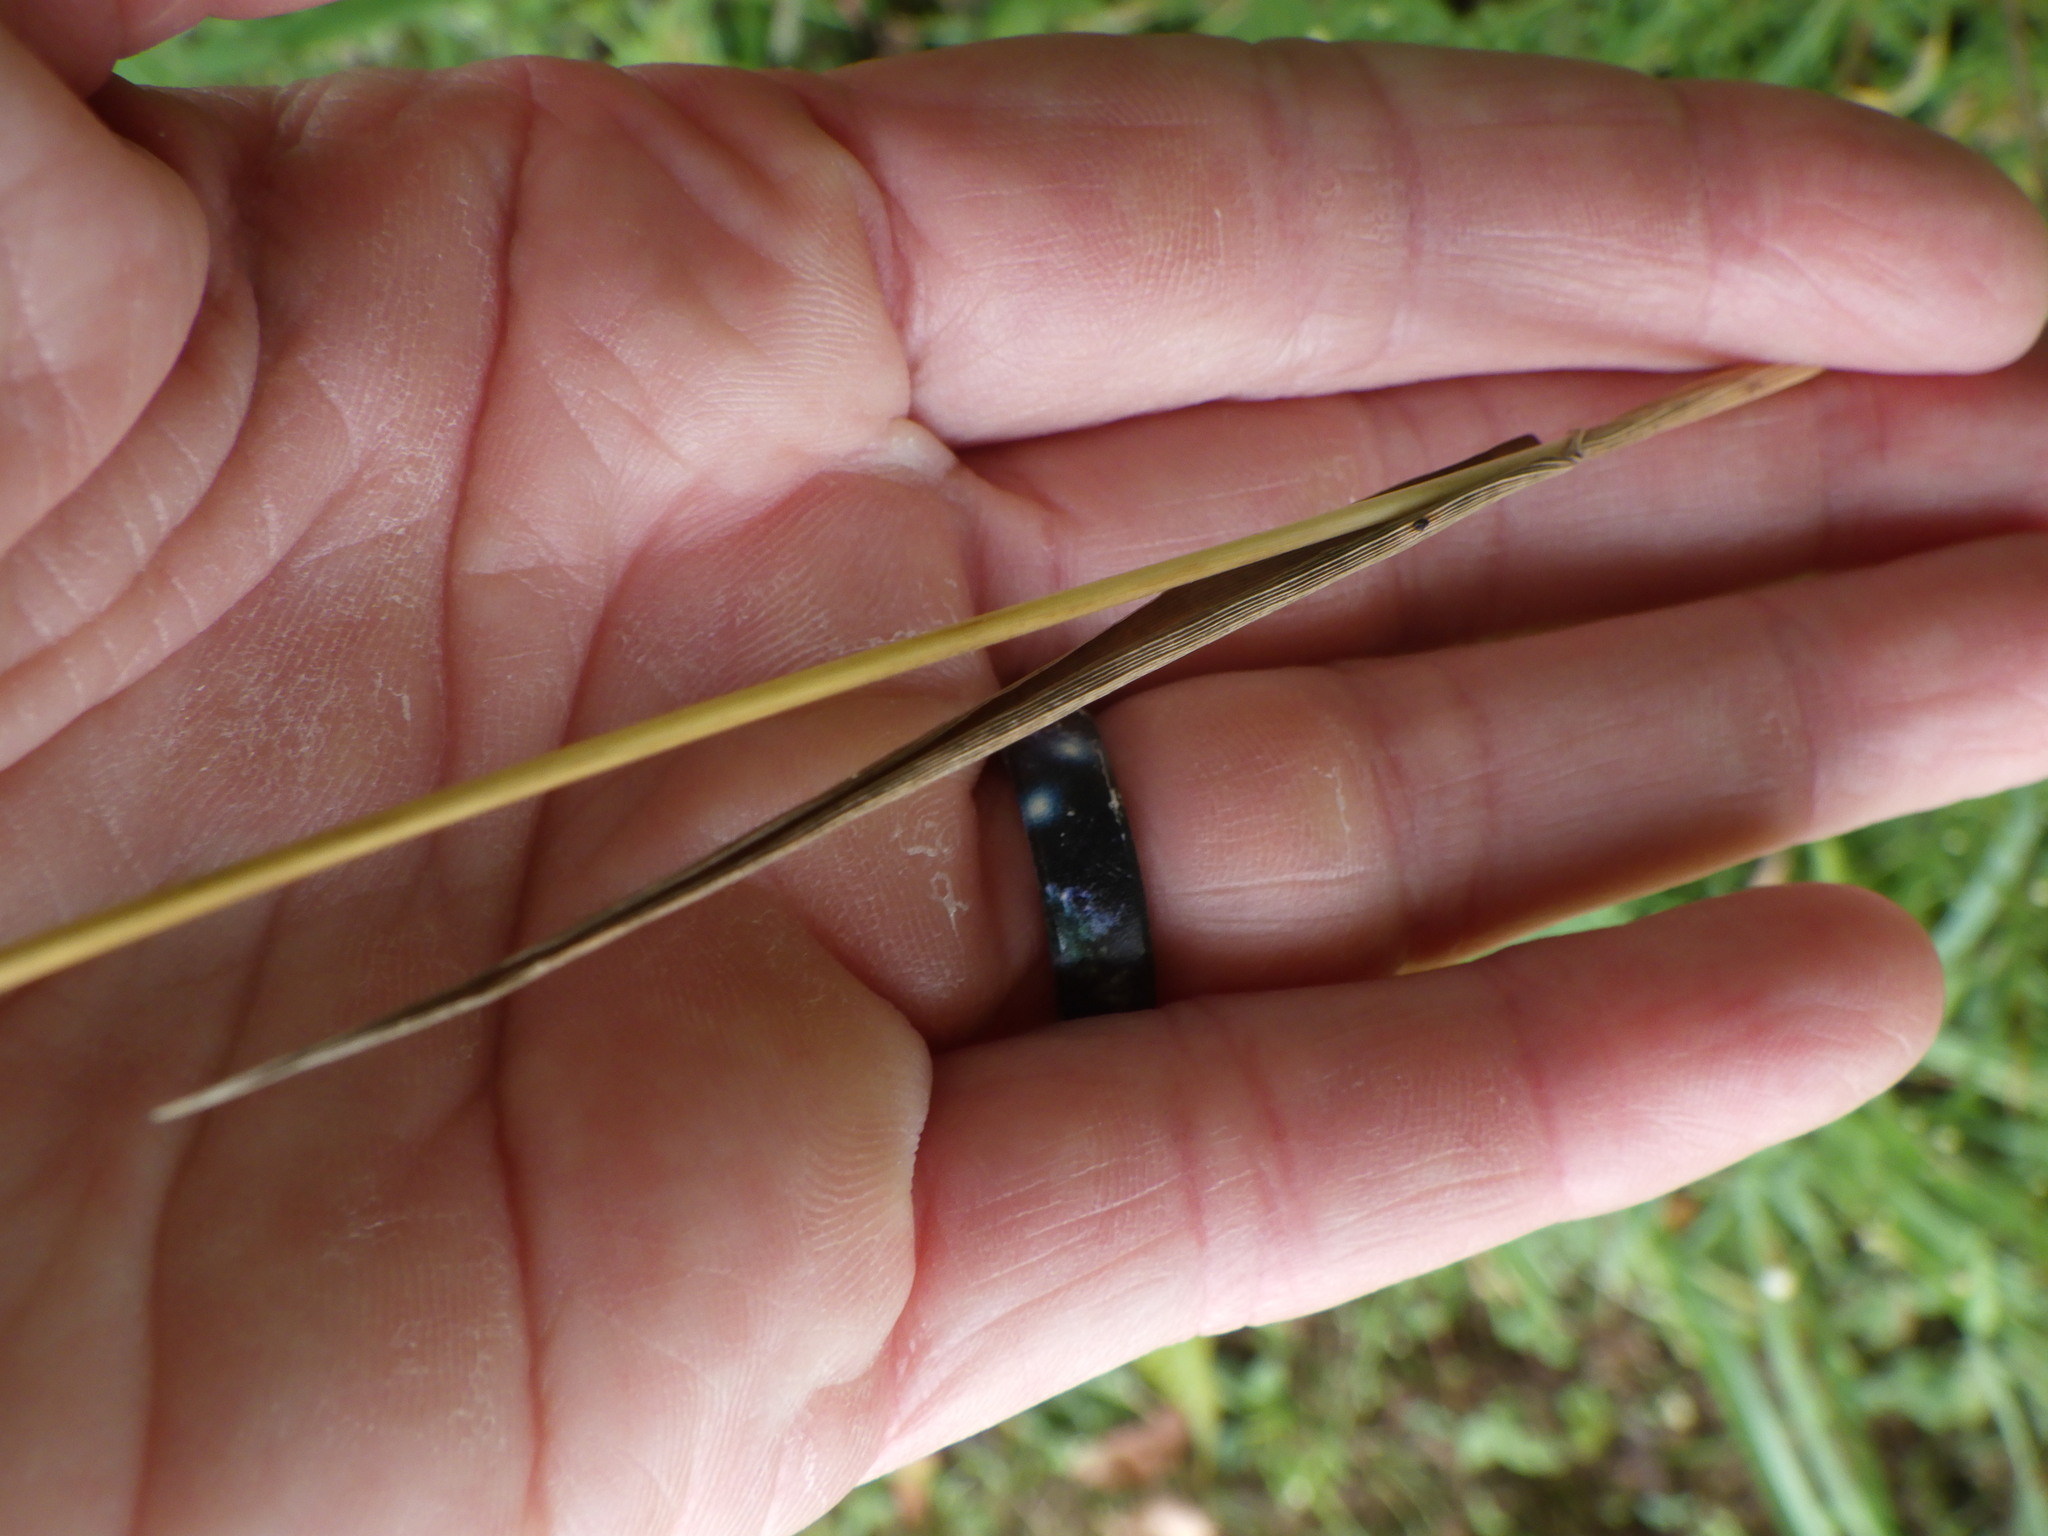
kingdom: Plantae
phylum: Tracheophyta
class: Liliopsida
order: Poales
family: Poaceae
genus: Phleum
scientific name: Phleum pratense
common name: Timothy grass
